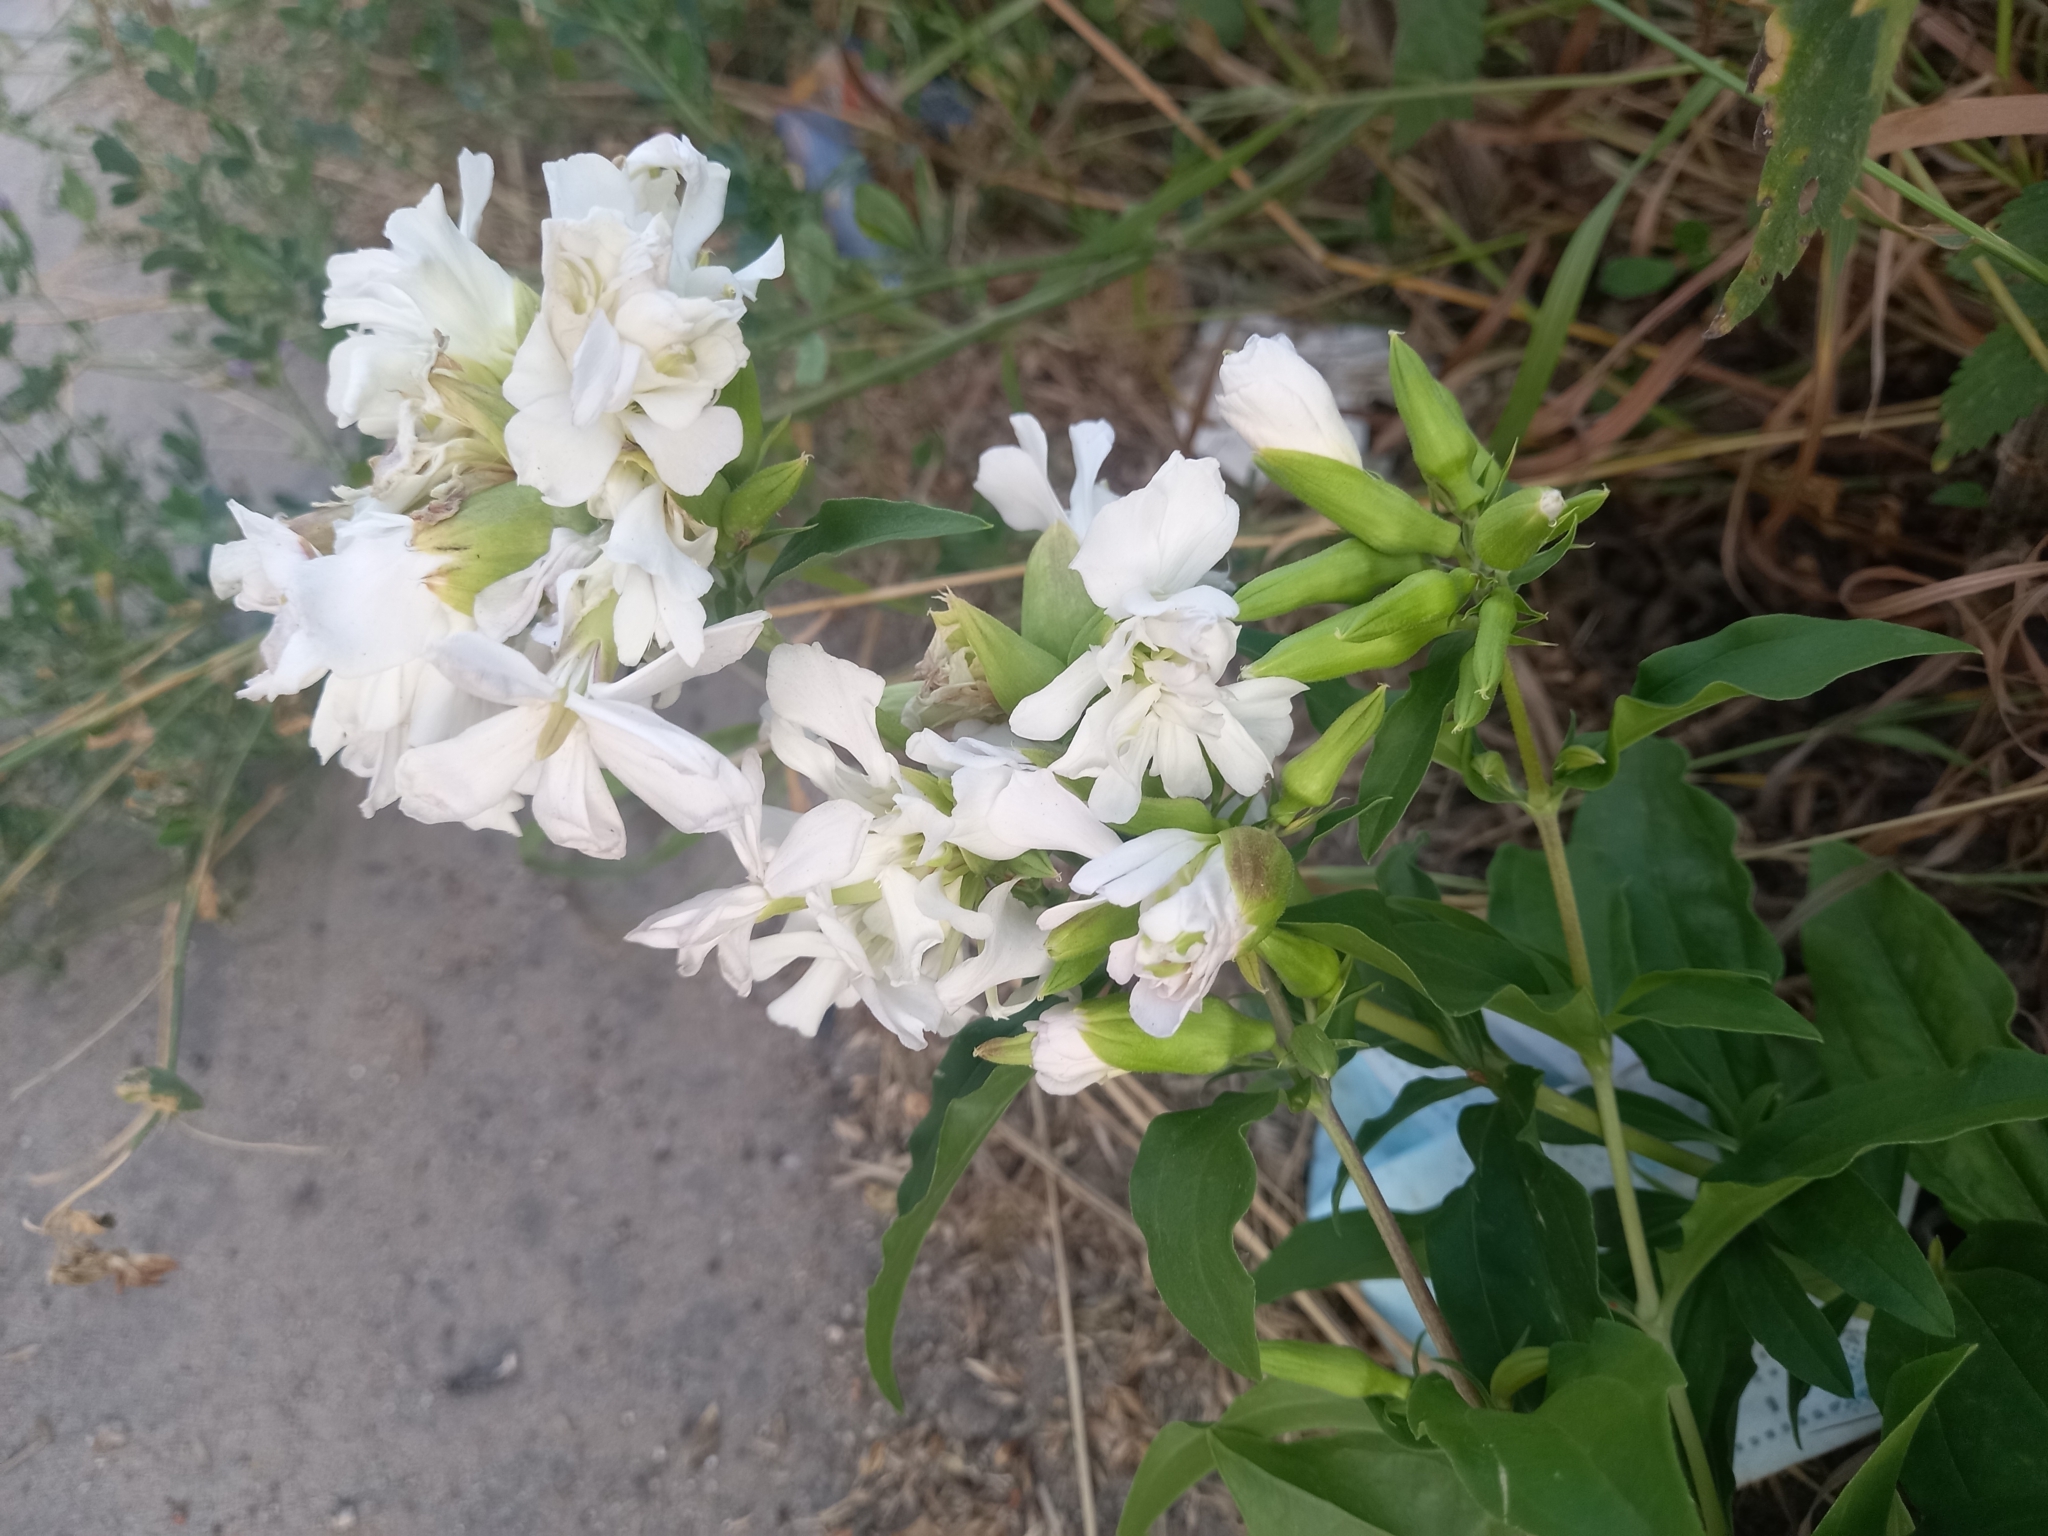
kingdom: Plantae
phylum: Tracheophyta
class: Magnoliopsida
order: Caryophyllales
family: Caryophyllaceae
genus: Saponaria
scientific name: Saponaria officinalis
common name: Soapwort
